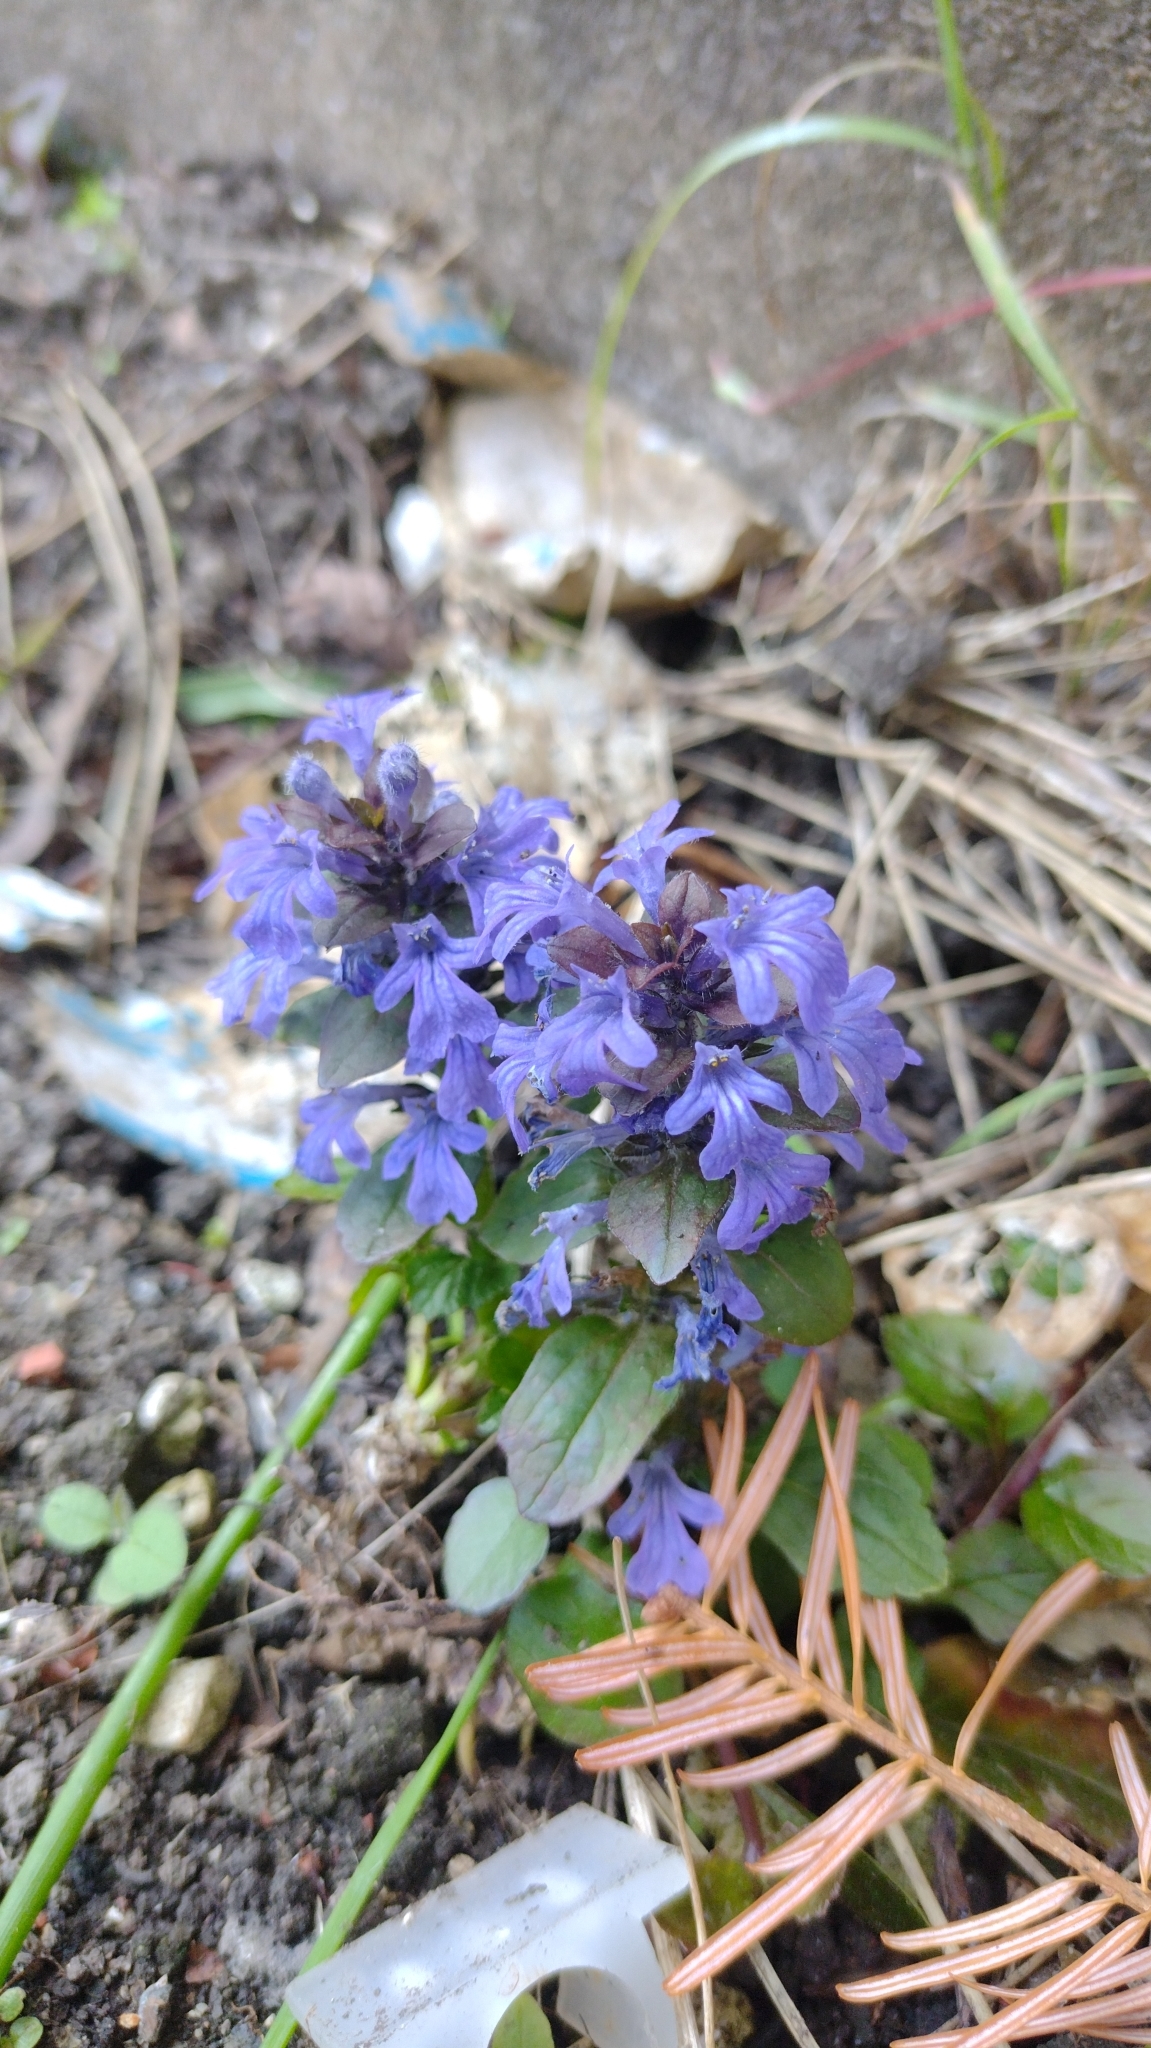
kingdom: Plantae
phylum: Tracheophyta
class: Magnoliopsida
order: Lamiales
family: Lamiaceae
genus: Ajuga
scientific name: Ajuga reptans
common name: Bugle
